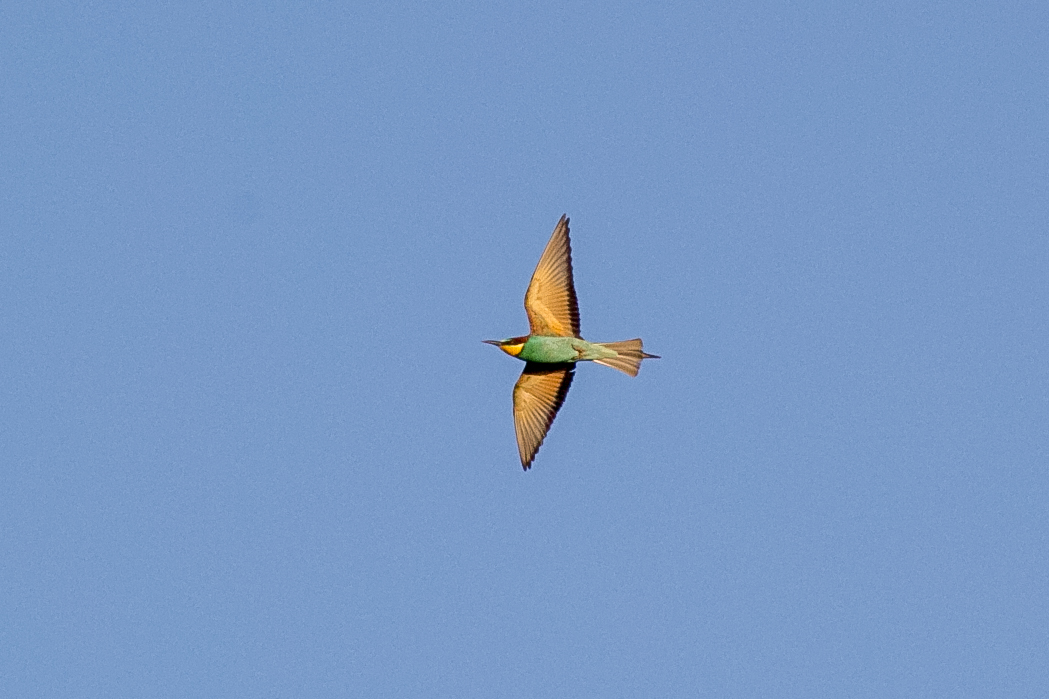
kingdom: Animalia
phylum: Chordata
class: Aves
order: Coraciiformes
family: Meropidae
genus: Merops
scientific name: Merops apiaster
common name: European bee-eater
